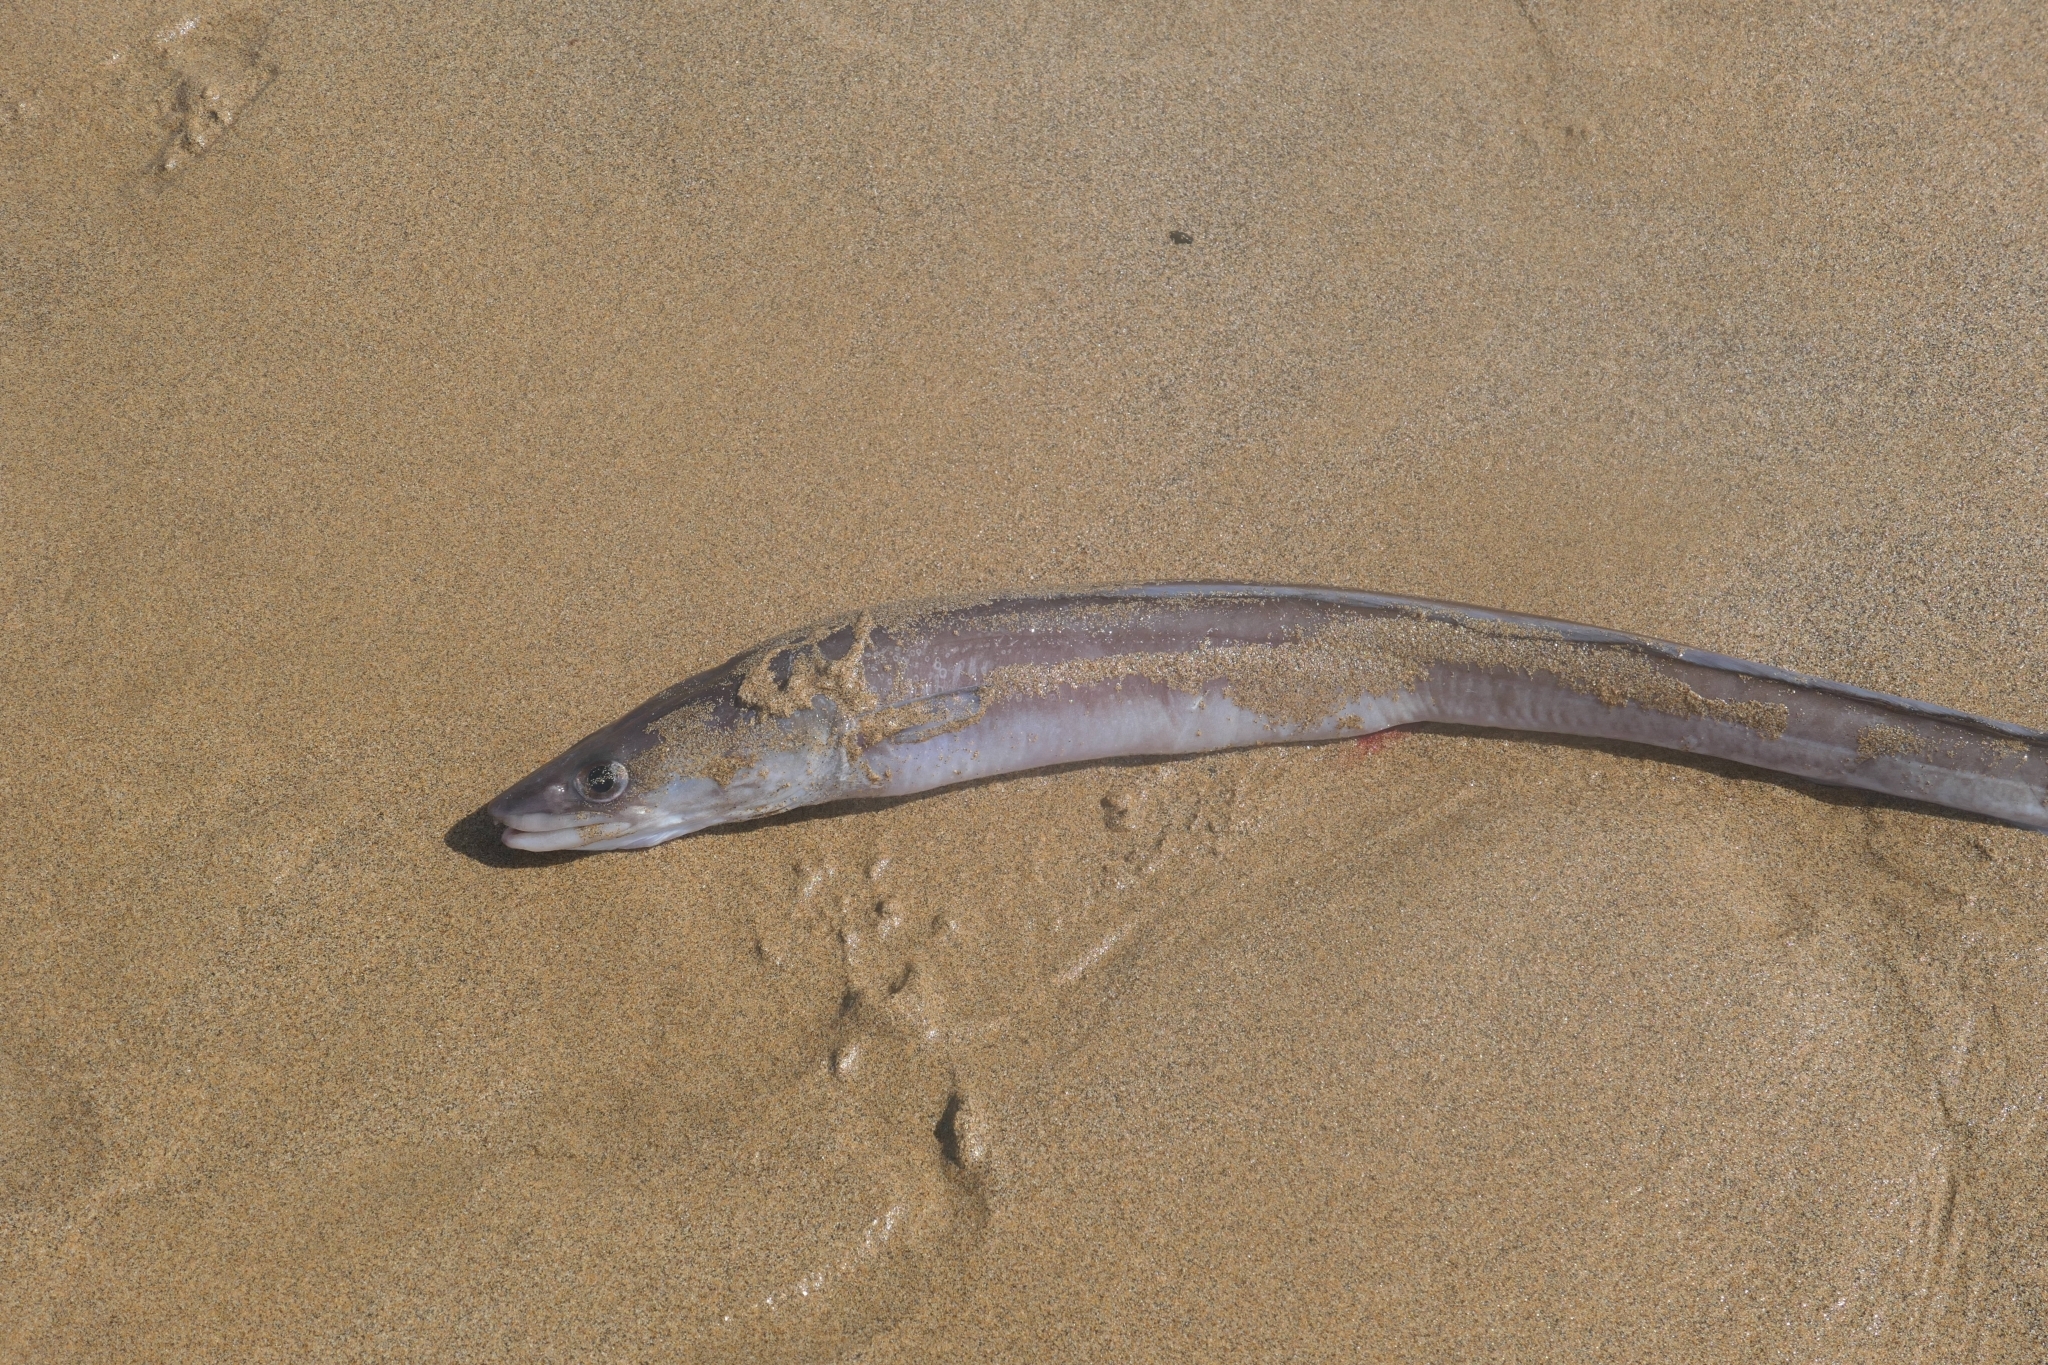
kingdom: Animalia
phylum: Chordata
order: Anguilliformes
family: Congridae
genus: Conger
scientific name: Conger conger
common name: Conger eel
